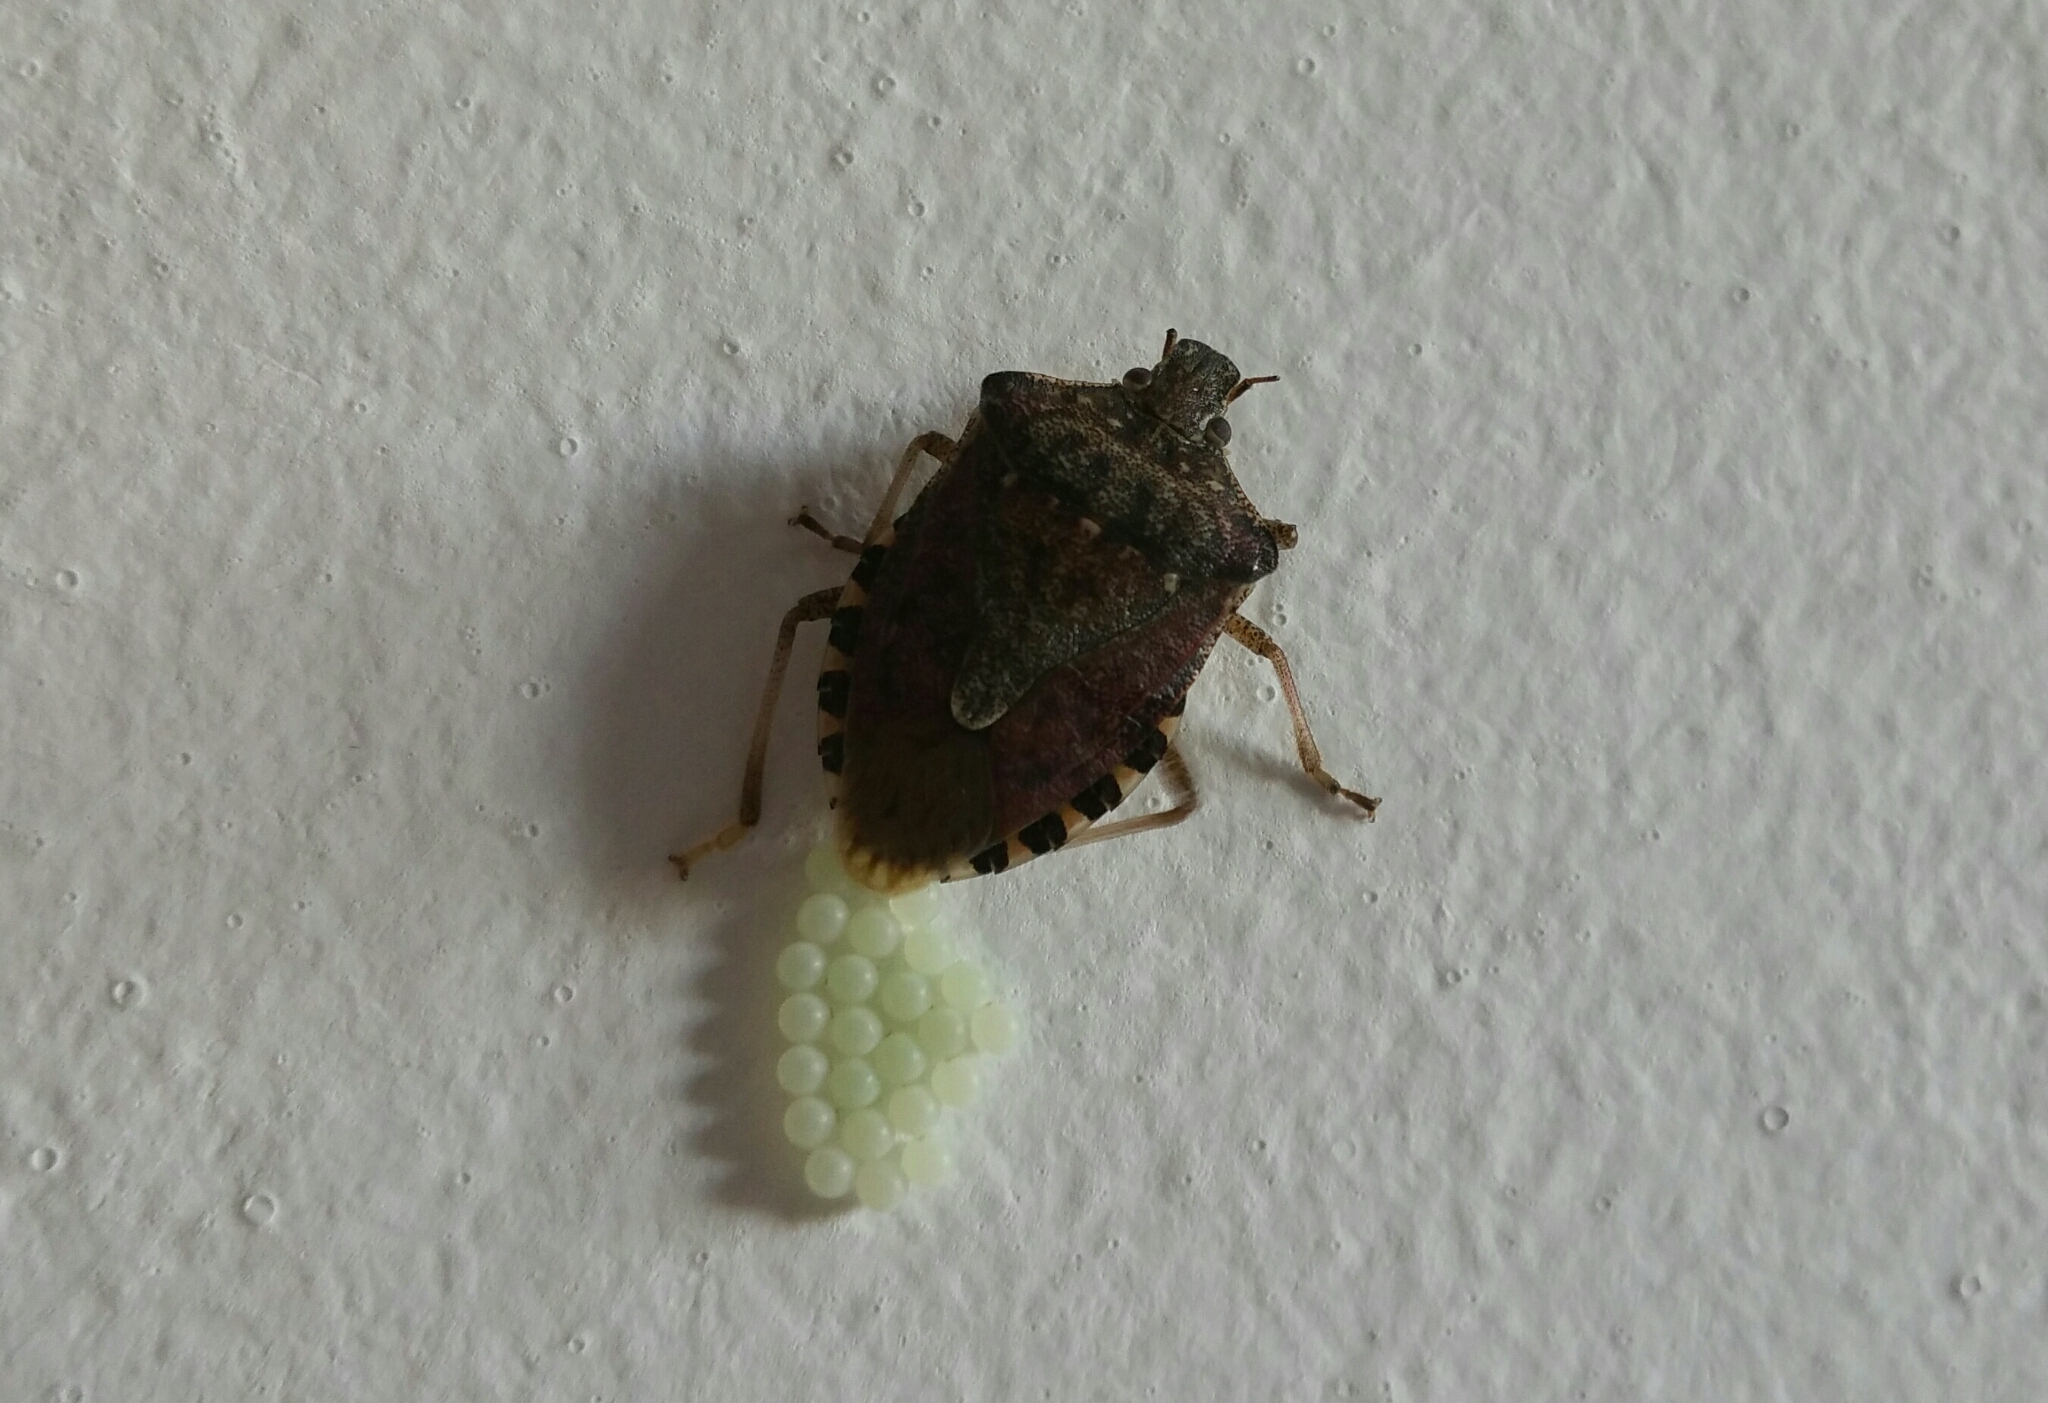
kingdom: Animalia
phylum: Arthropoda
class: Insecta
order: Hemiptera
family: Pentatomidae
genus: Halyomorpha
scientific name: Halyomorpha halys
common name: Brown marmorated stink bug
